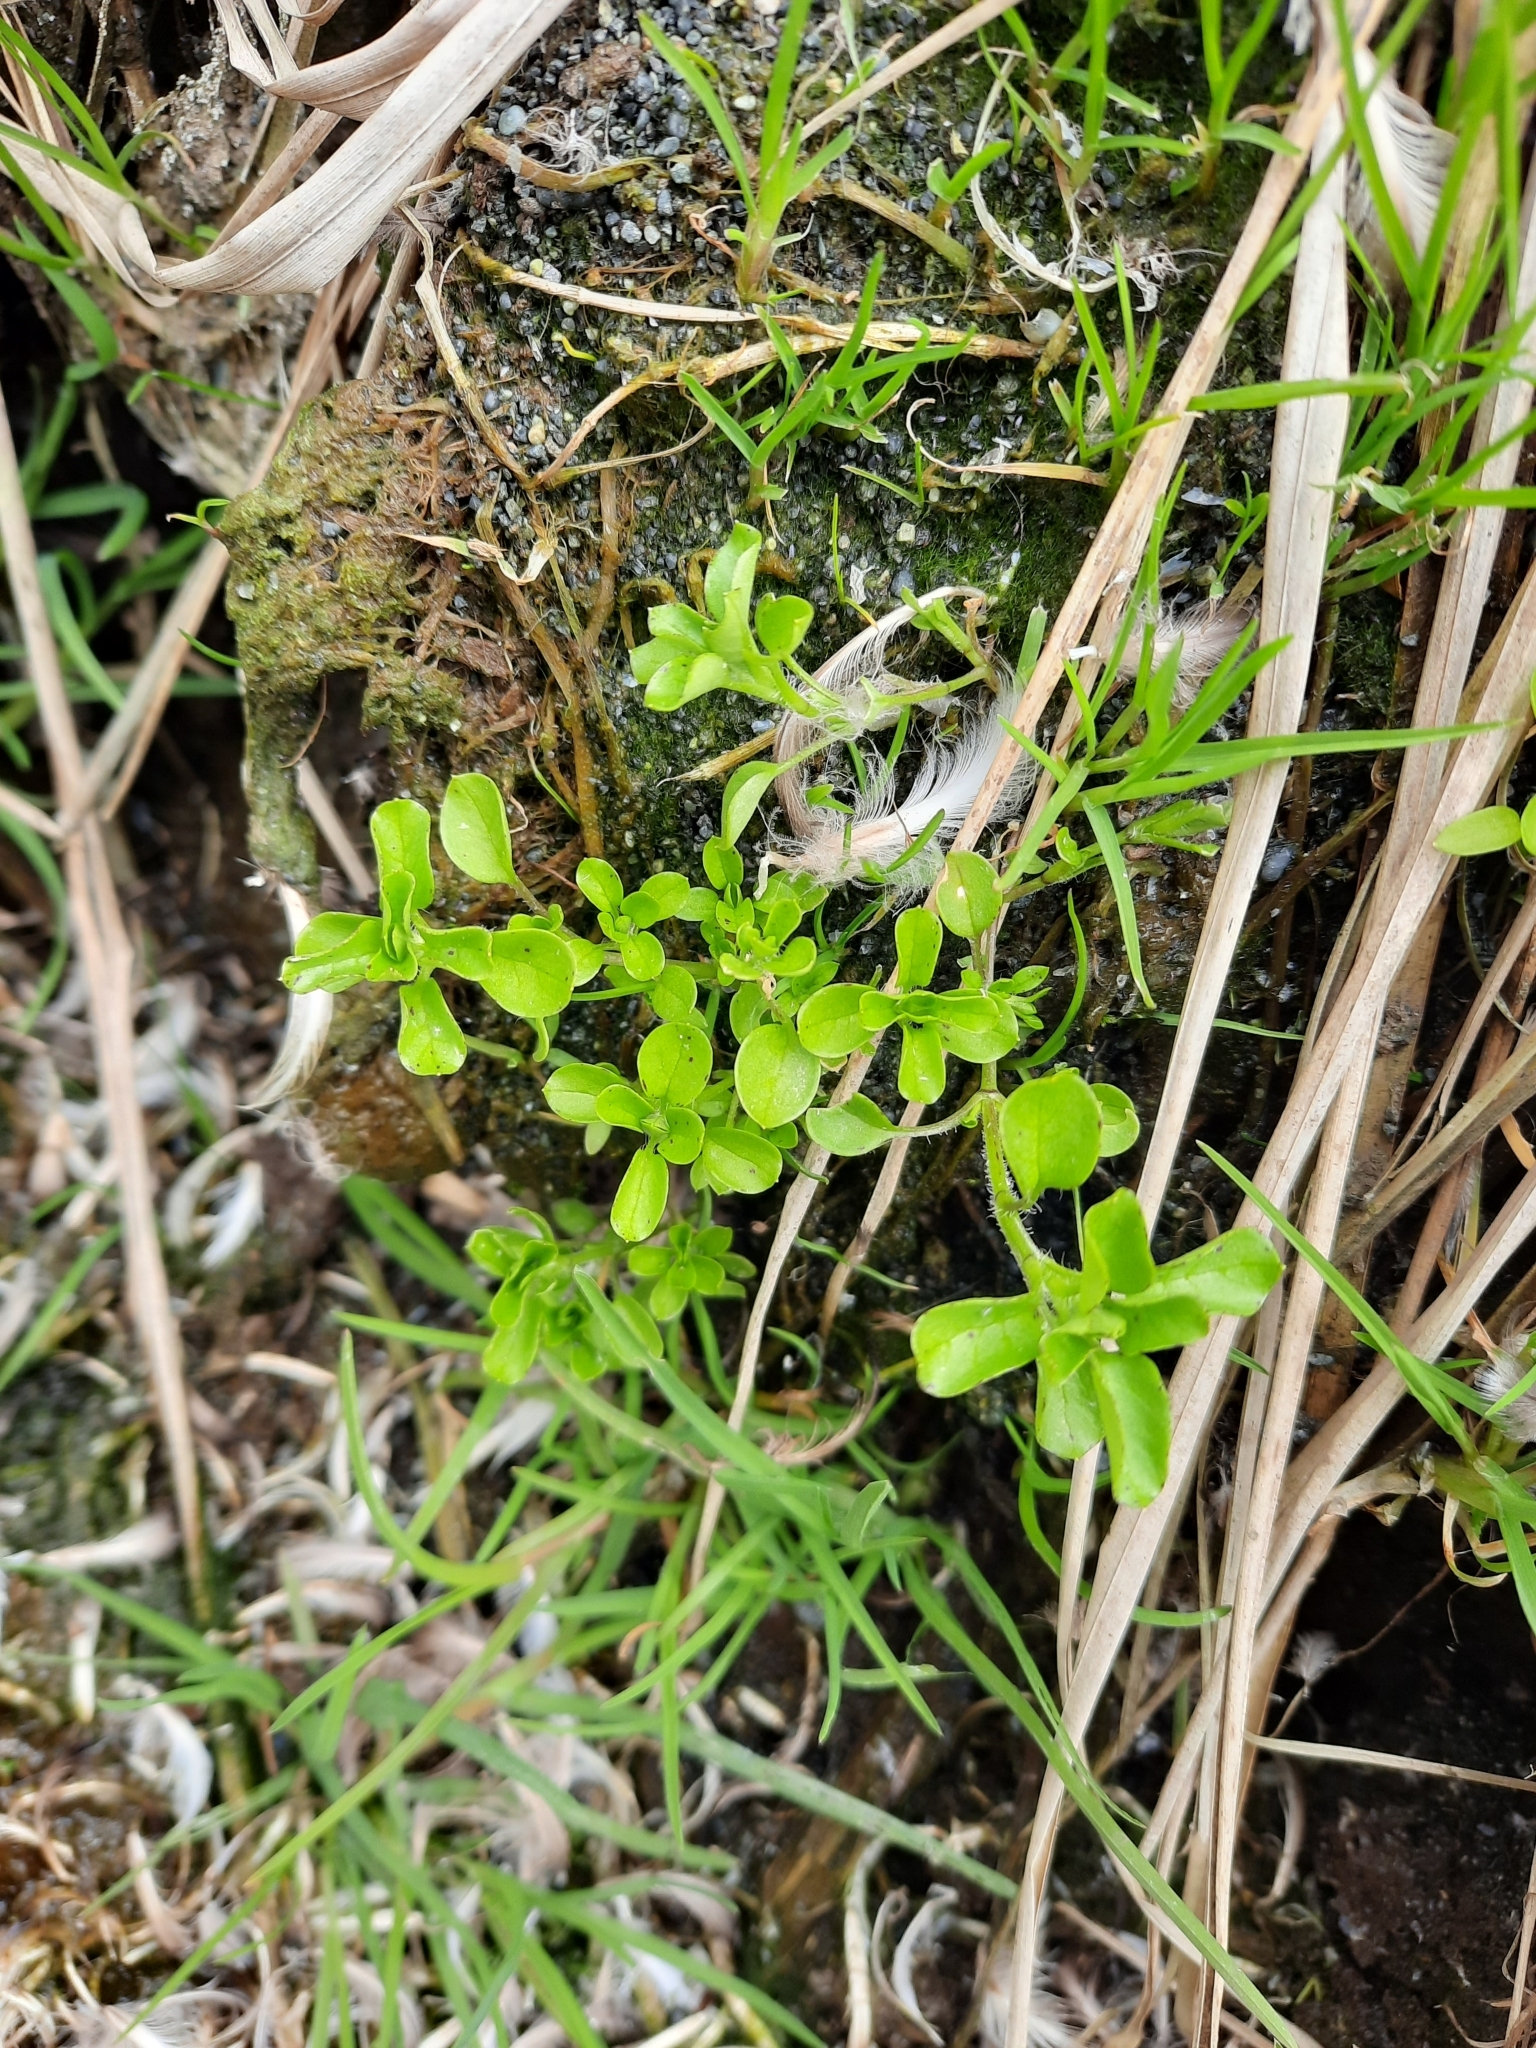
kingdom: Plantae
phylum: Tracheophyta
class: Magnoliopsida
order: Caryophyllales
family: Caryophyllaceae
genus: Stellaria
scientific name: Stellaria media
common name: Common chickweed
